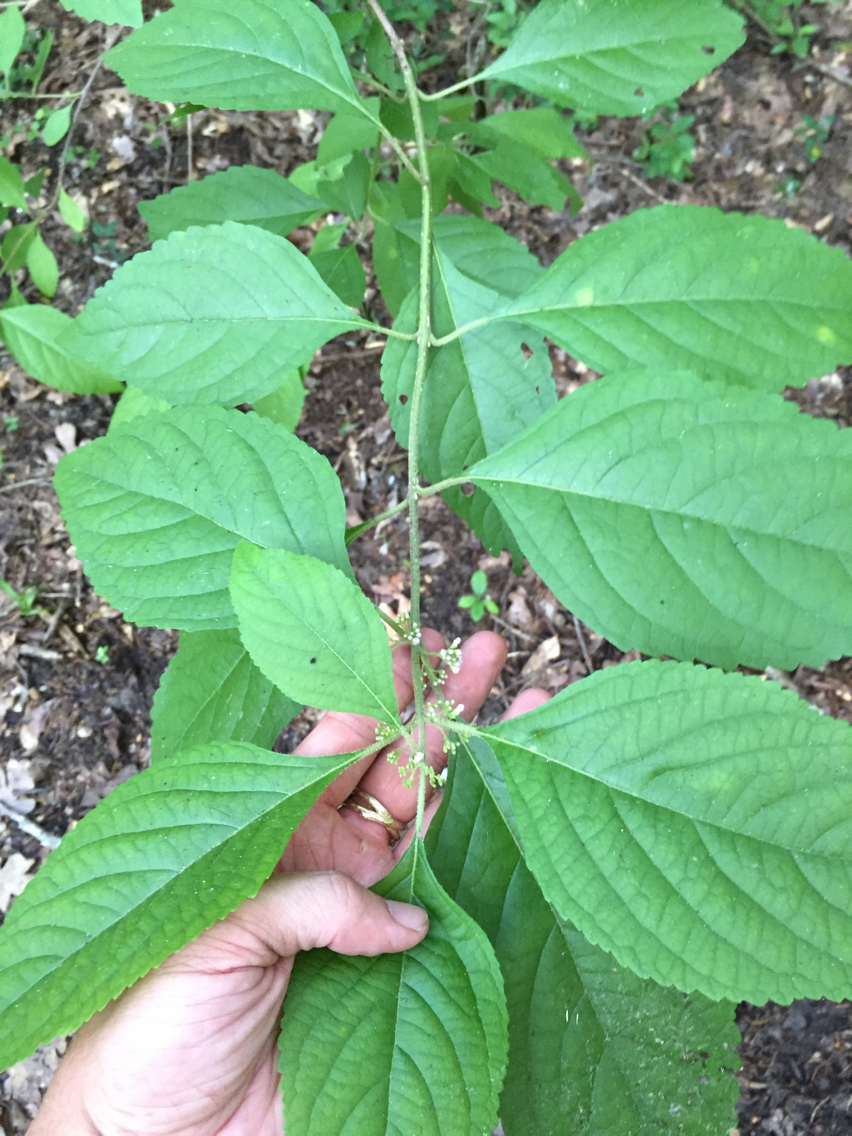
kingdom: Plantae
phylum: Tracheophyta
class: Magnoliopsida
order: Lamiales
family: Lamiaceae
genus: Callicarpa
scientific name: Callicarpa americana
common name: American beautyberry
